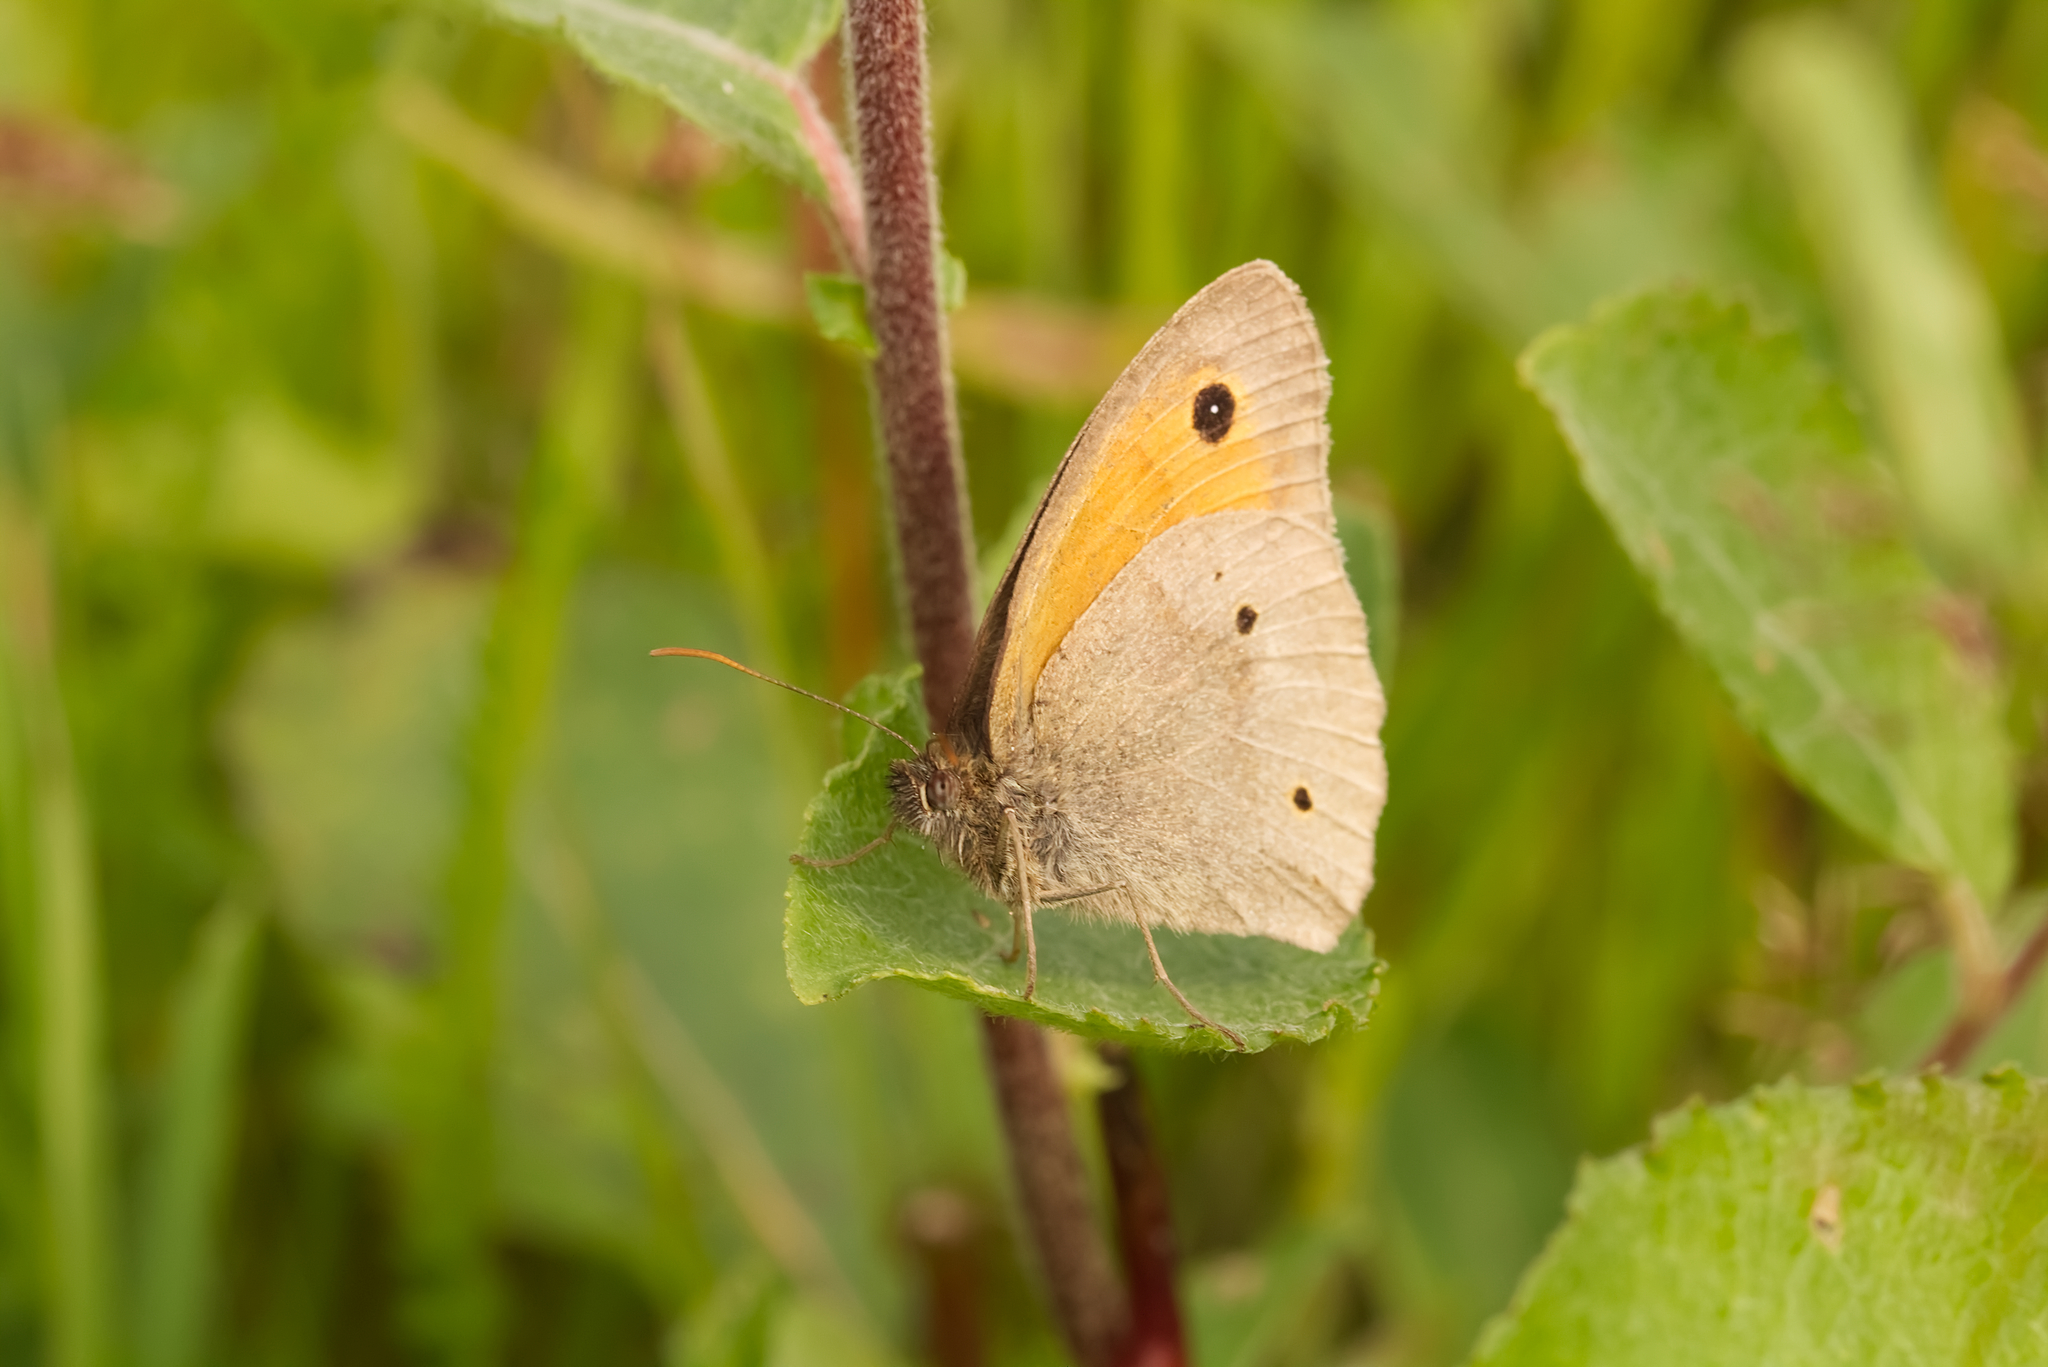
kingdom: Animalia
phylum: Arthropoda
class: Insecta
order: Lepidoptera
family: Nymphalidae
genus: Maniola
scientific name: Maniola jurtina
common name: Meadow brown
